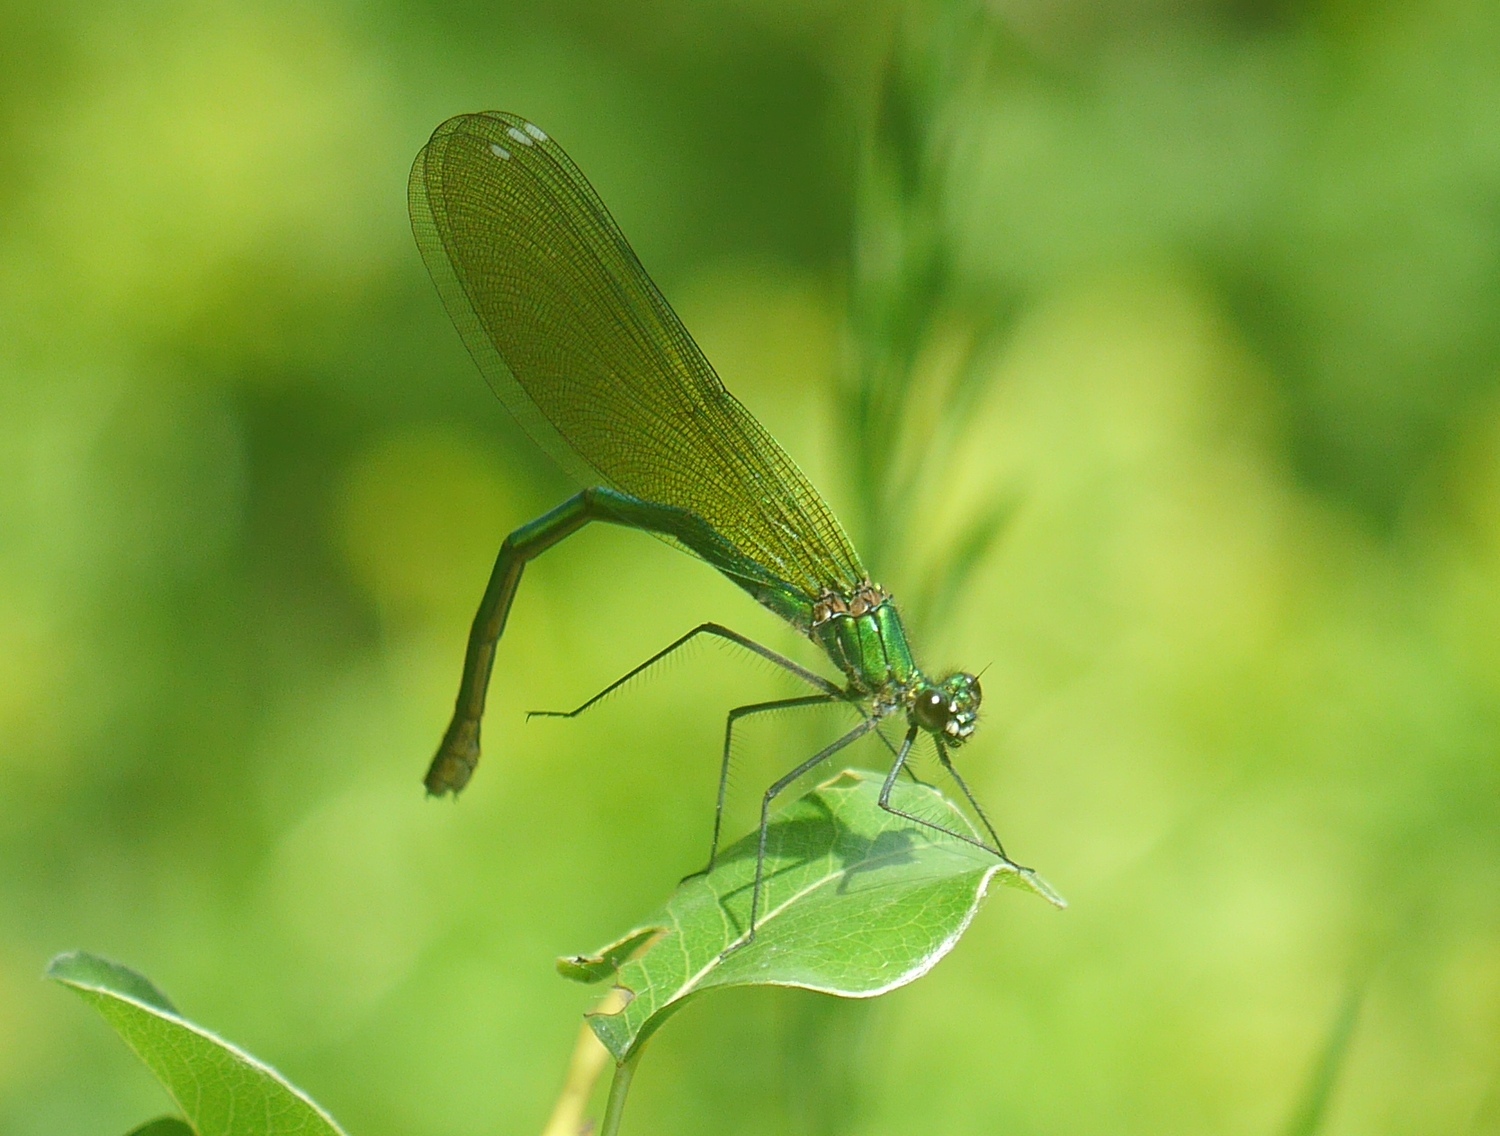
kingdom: Animalia
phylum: Arthropoda
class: Insecta
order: Odonata
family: Calopterygidae
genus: Calopteryx
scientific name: Calopteryx splendens
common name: Banded demoiselle
